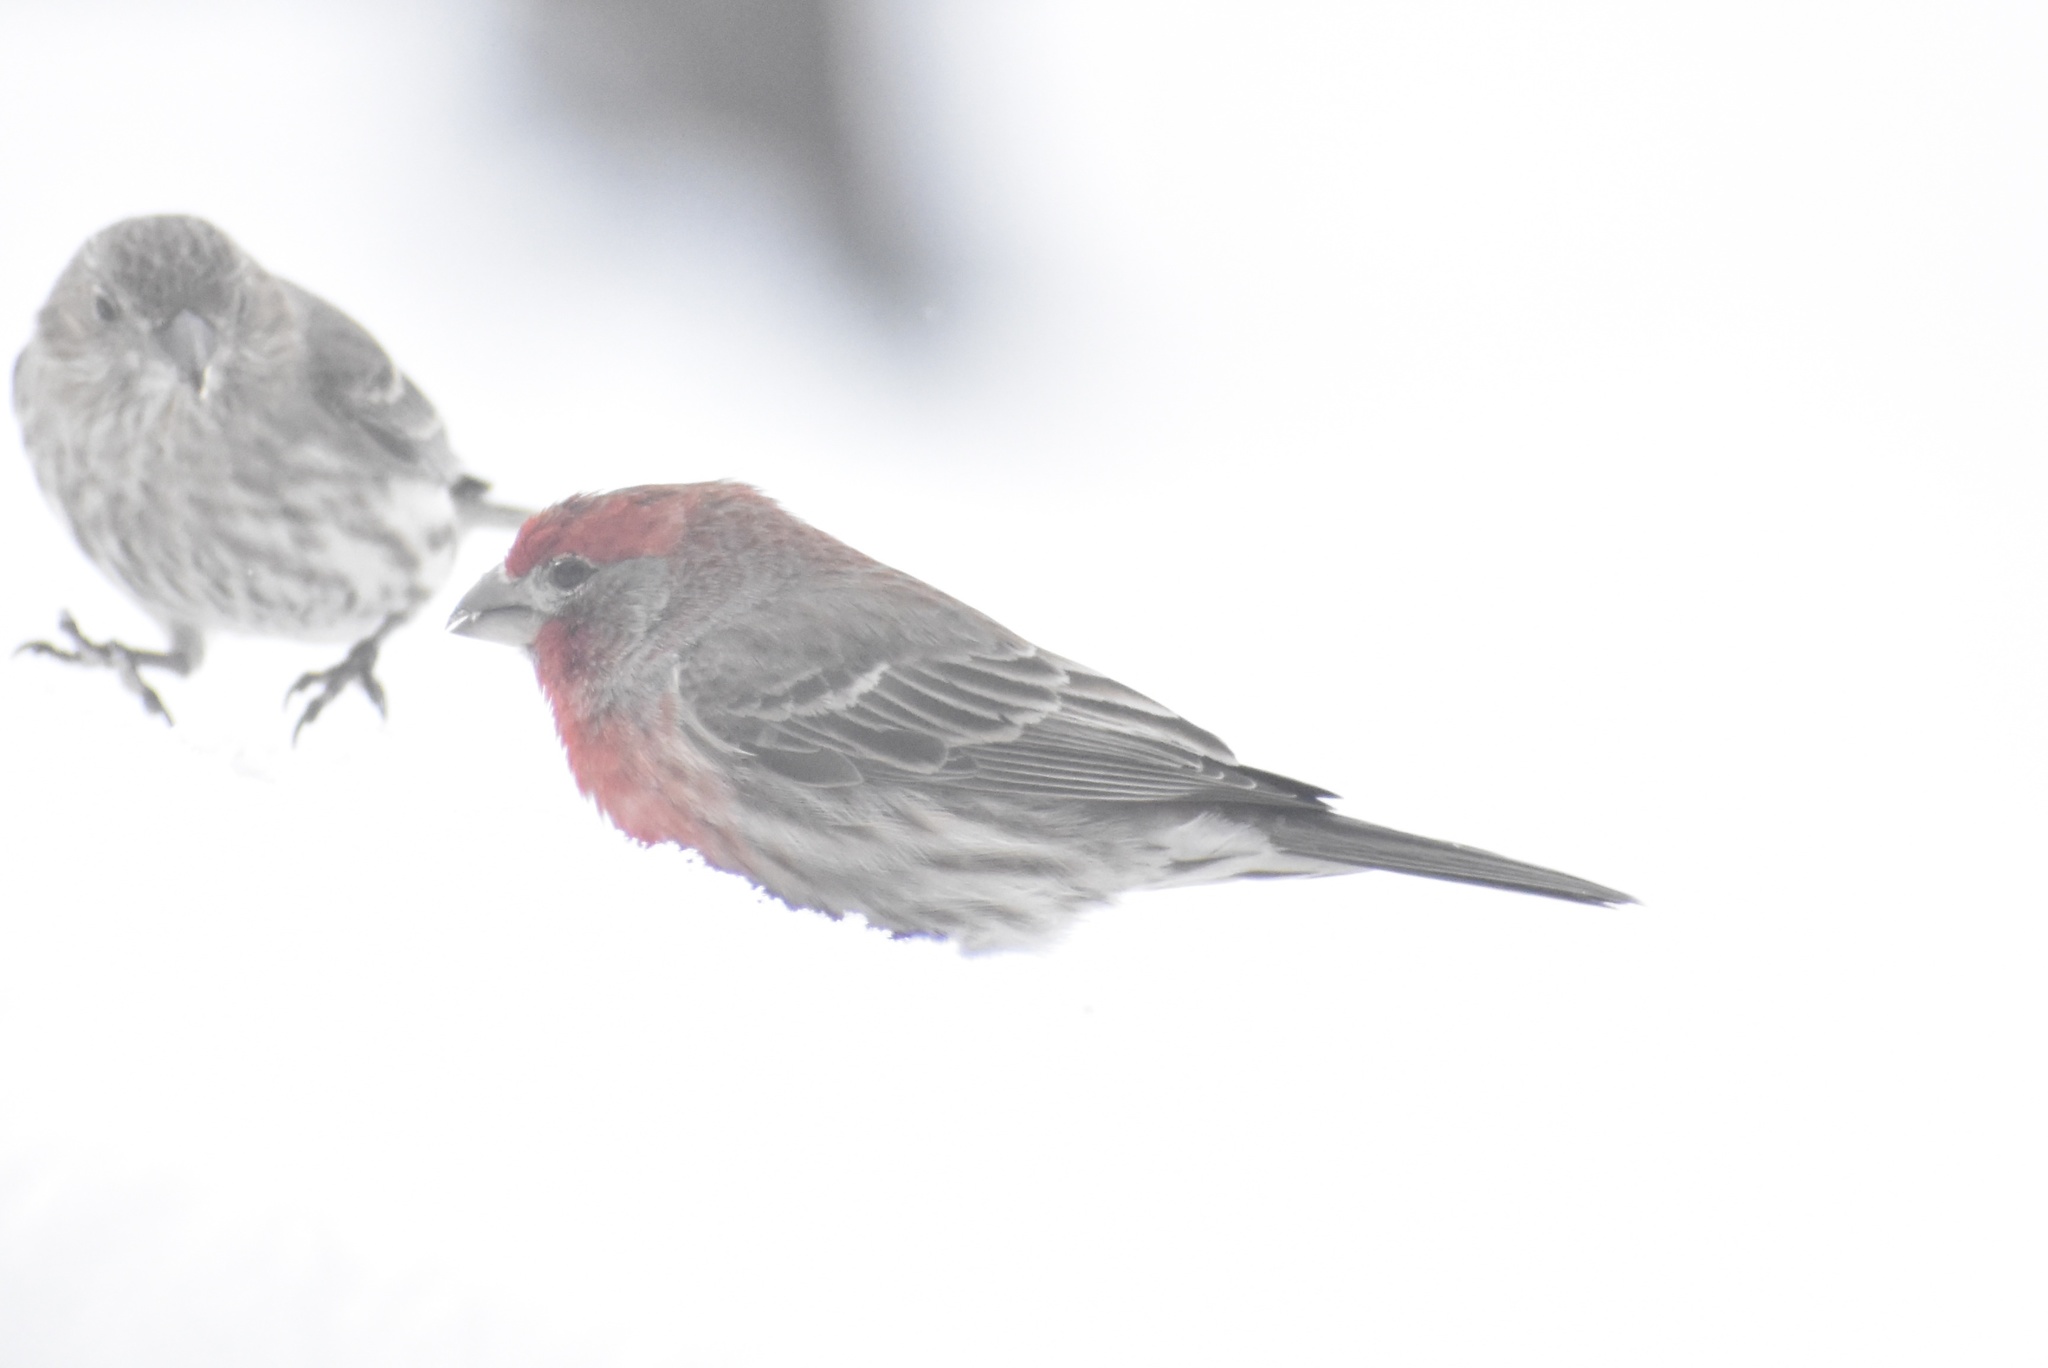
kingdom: Animalia
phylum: Chordata
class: Aves
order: Passeriformes
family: Fringillidae
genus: Haemorhous
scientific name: Haemorhous mexicanus
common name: House finch
